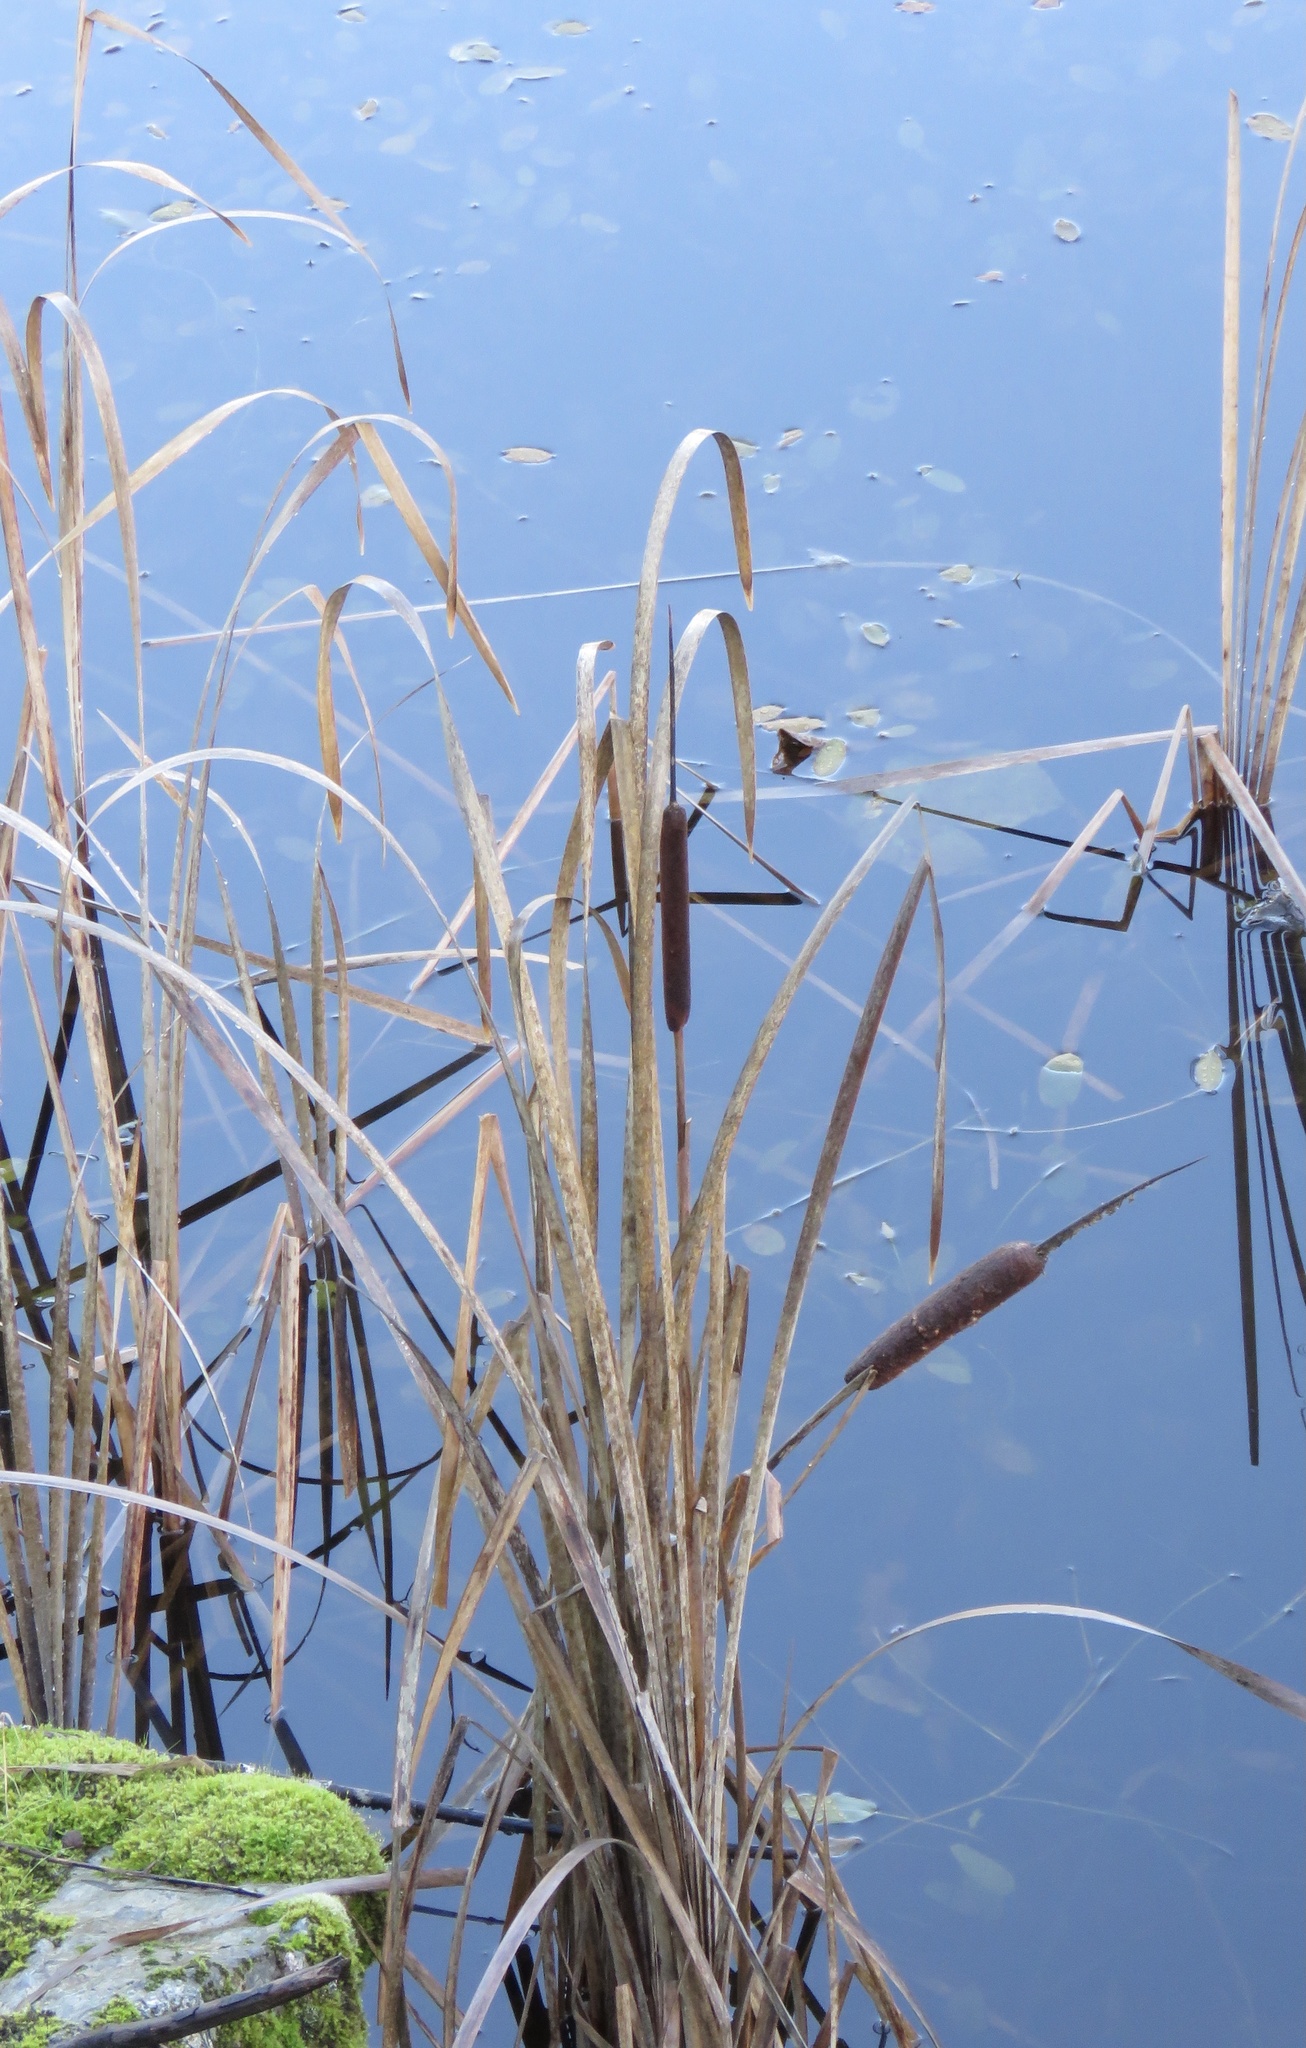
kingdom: Plantae
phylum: Tracheophyta
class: Liliopsida
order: Poales
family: Typhaceae
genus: Typha
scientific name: Typha latifolia
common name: Broadleaf cattail
